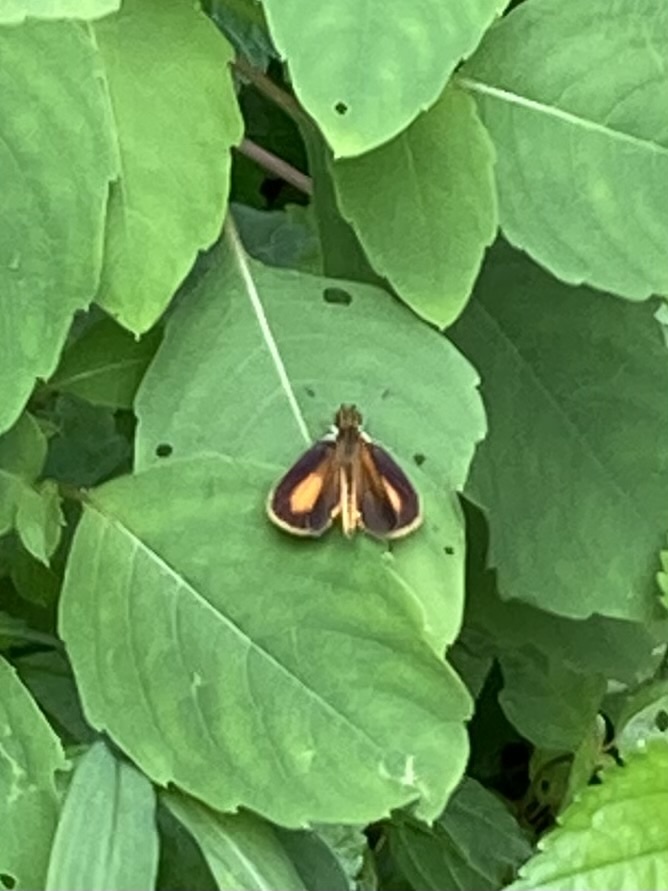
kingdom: Animalia
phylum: Arthropoda
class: Insecta
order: Lepidoptera
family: Hesperiidae
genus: Ancyloxypha
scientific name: Ancyloxypha numitor
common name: Least skipper
